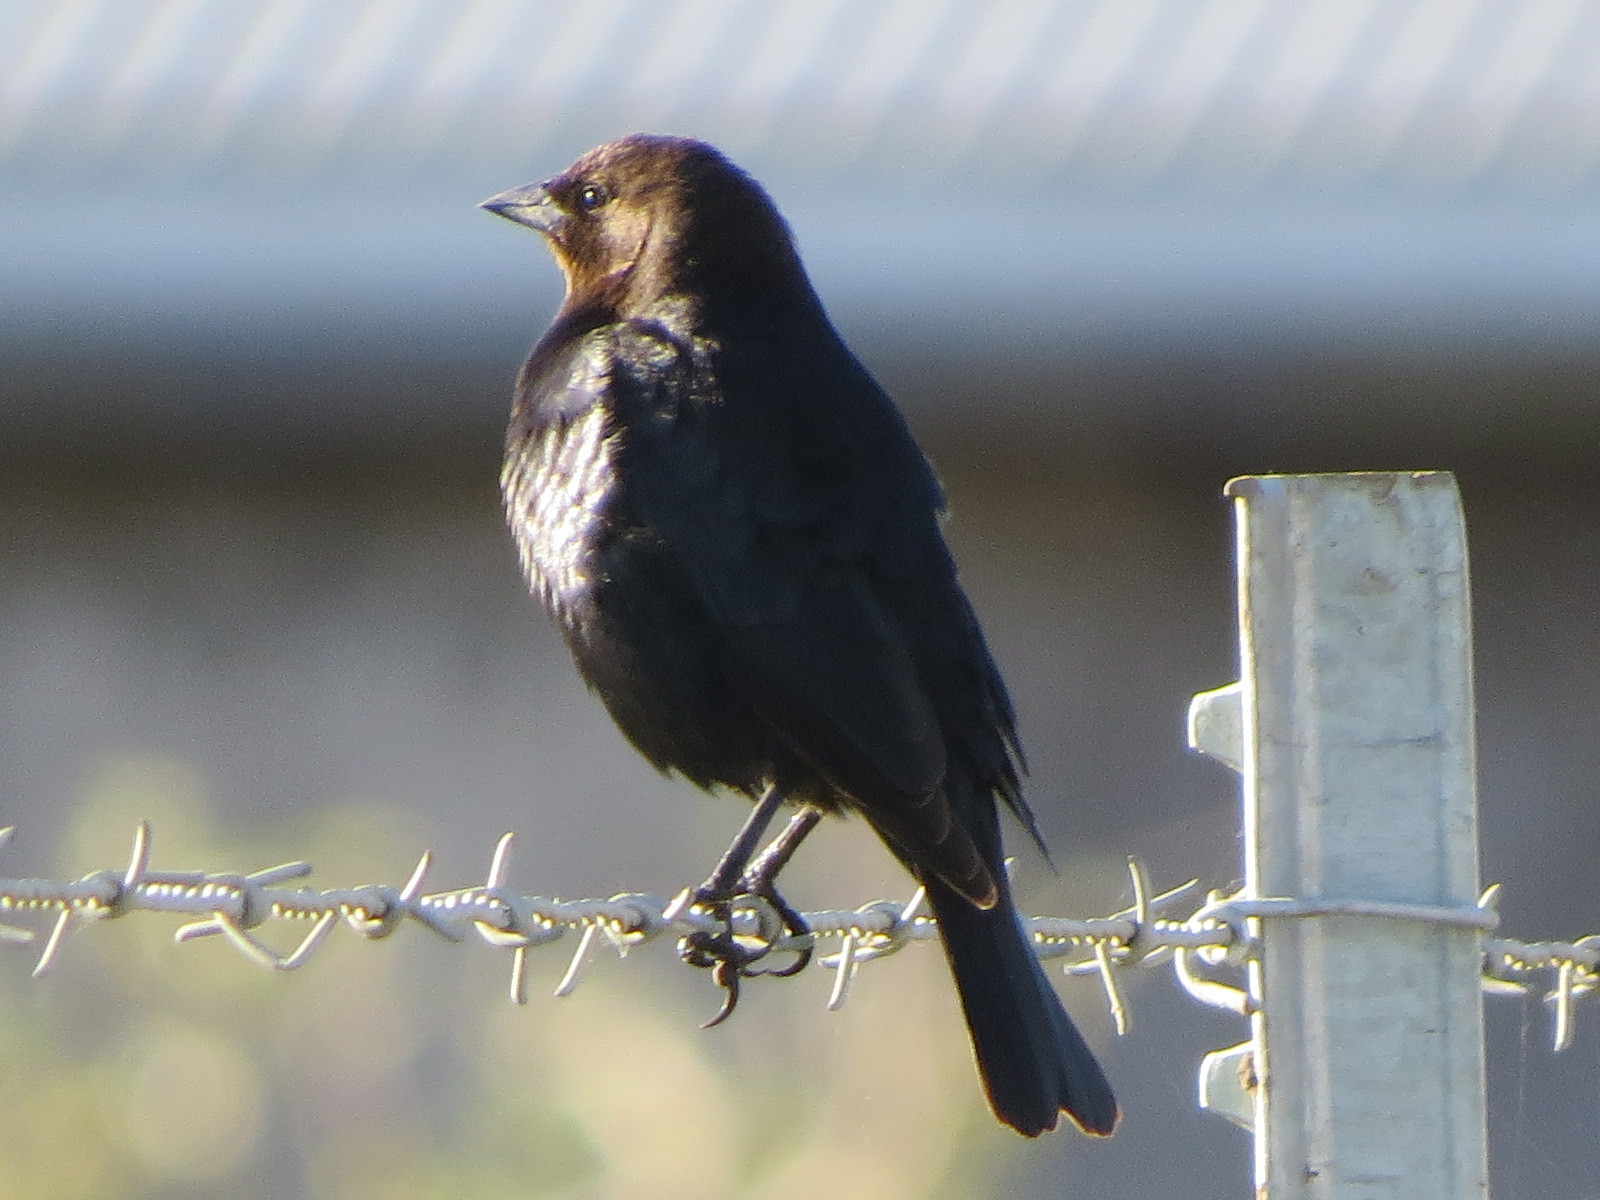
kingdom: Animalia
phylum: Chordata
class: Aves
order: Passeriformes
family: Icteridae
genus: Molothrus
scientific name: Molothrus ater
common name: Brown-headed cowbird
